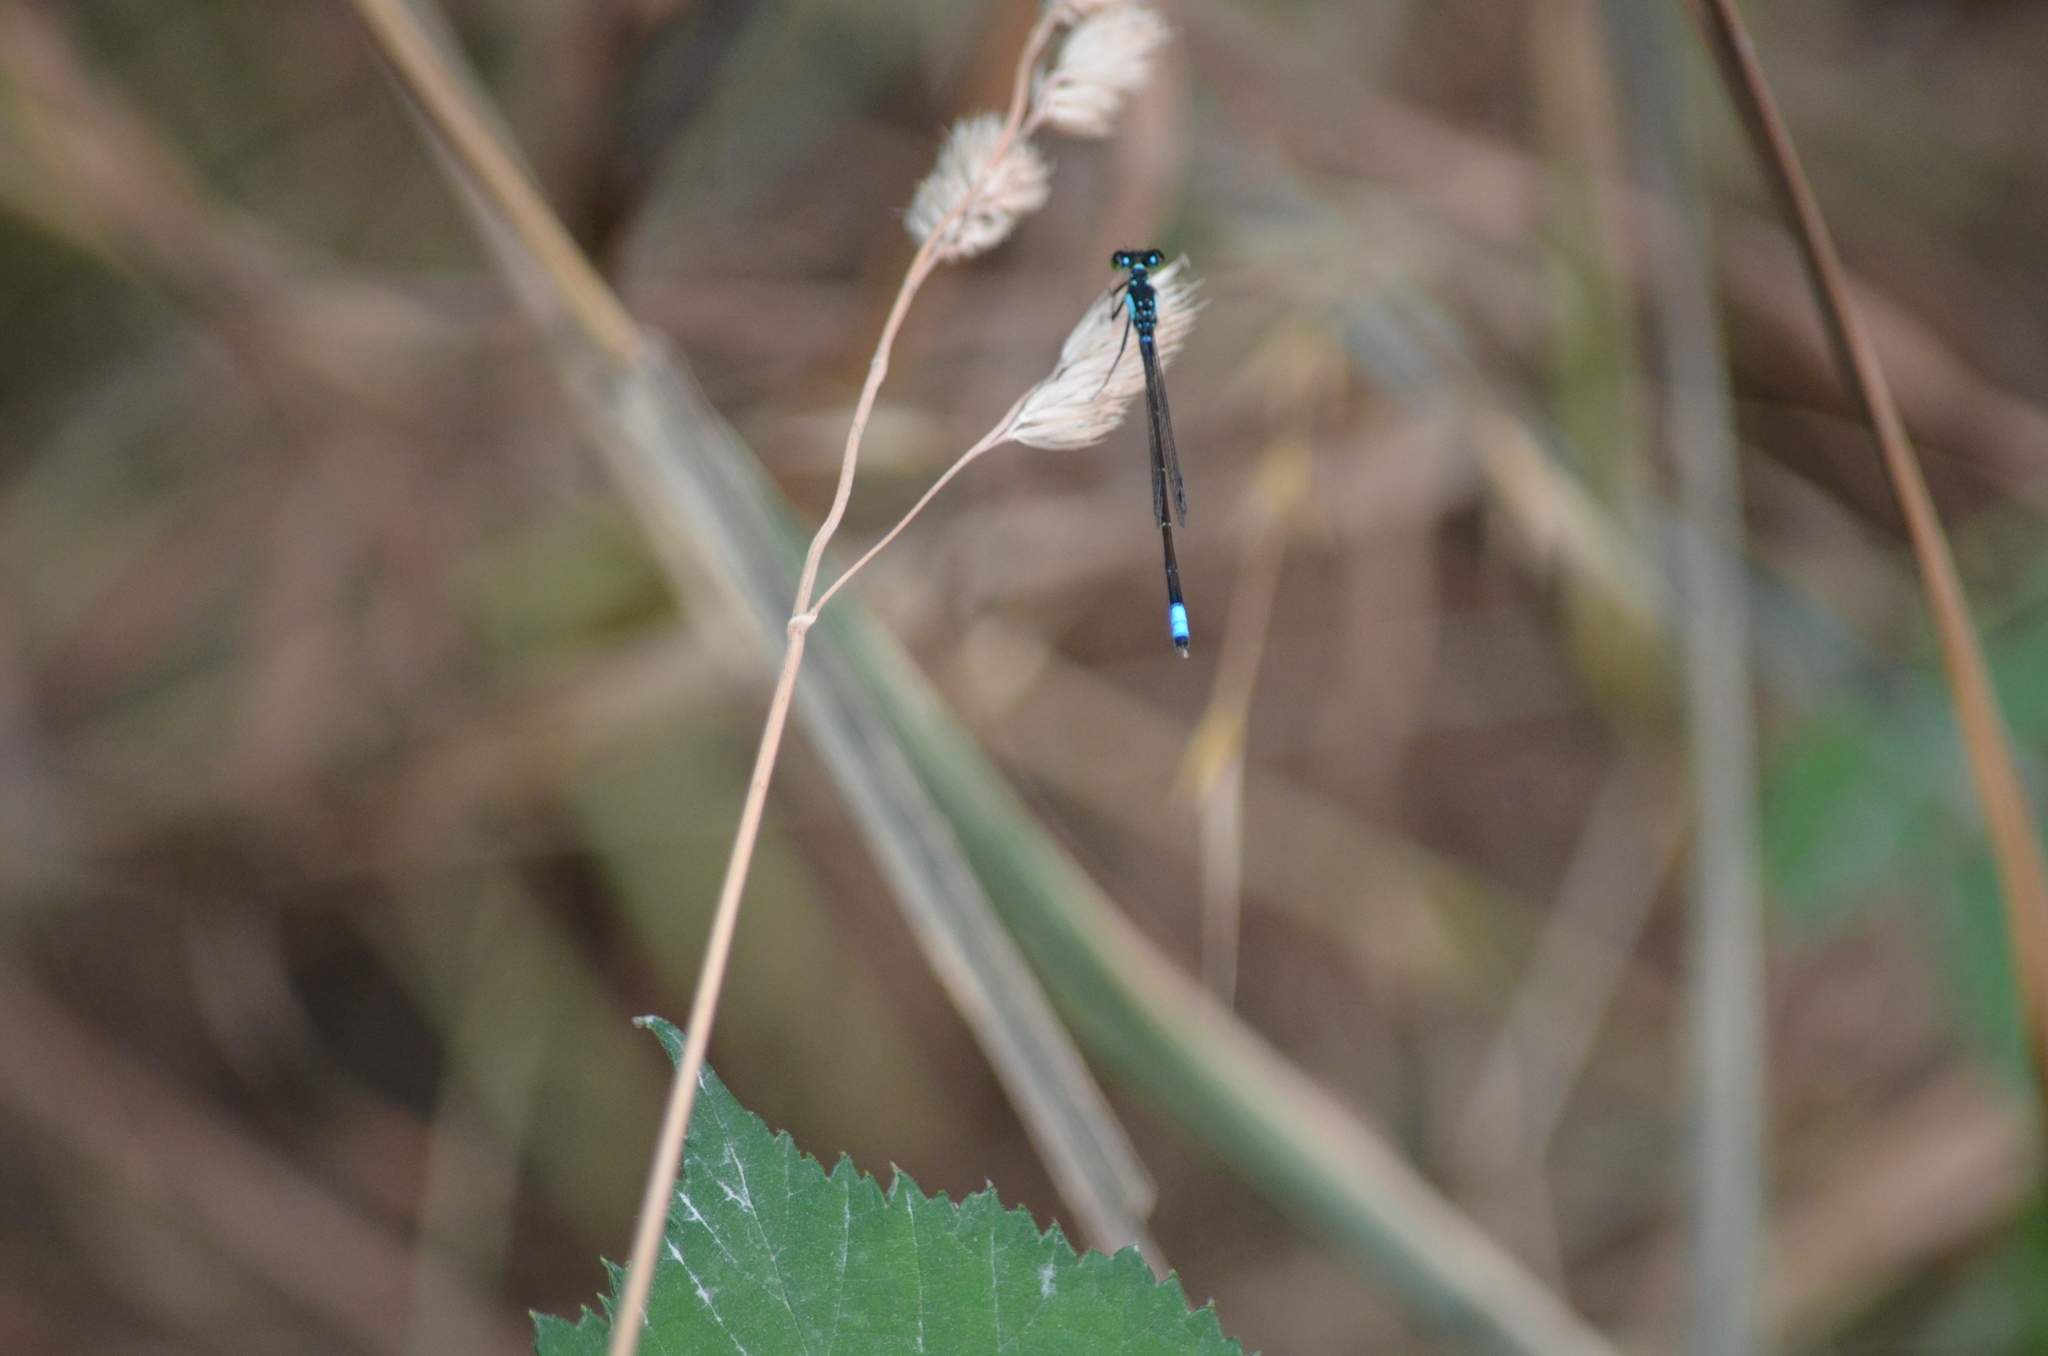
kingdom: Animalia
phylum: Arthropoda
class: Insecta
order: Odonata
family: Coenagrionidae
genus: Ischnura
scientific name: Ischnura cervula
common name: Pacific forktail
